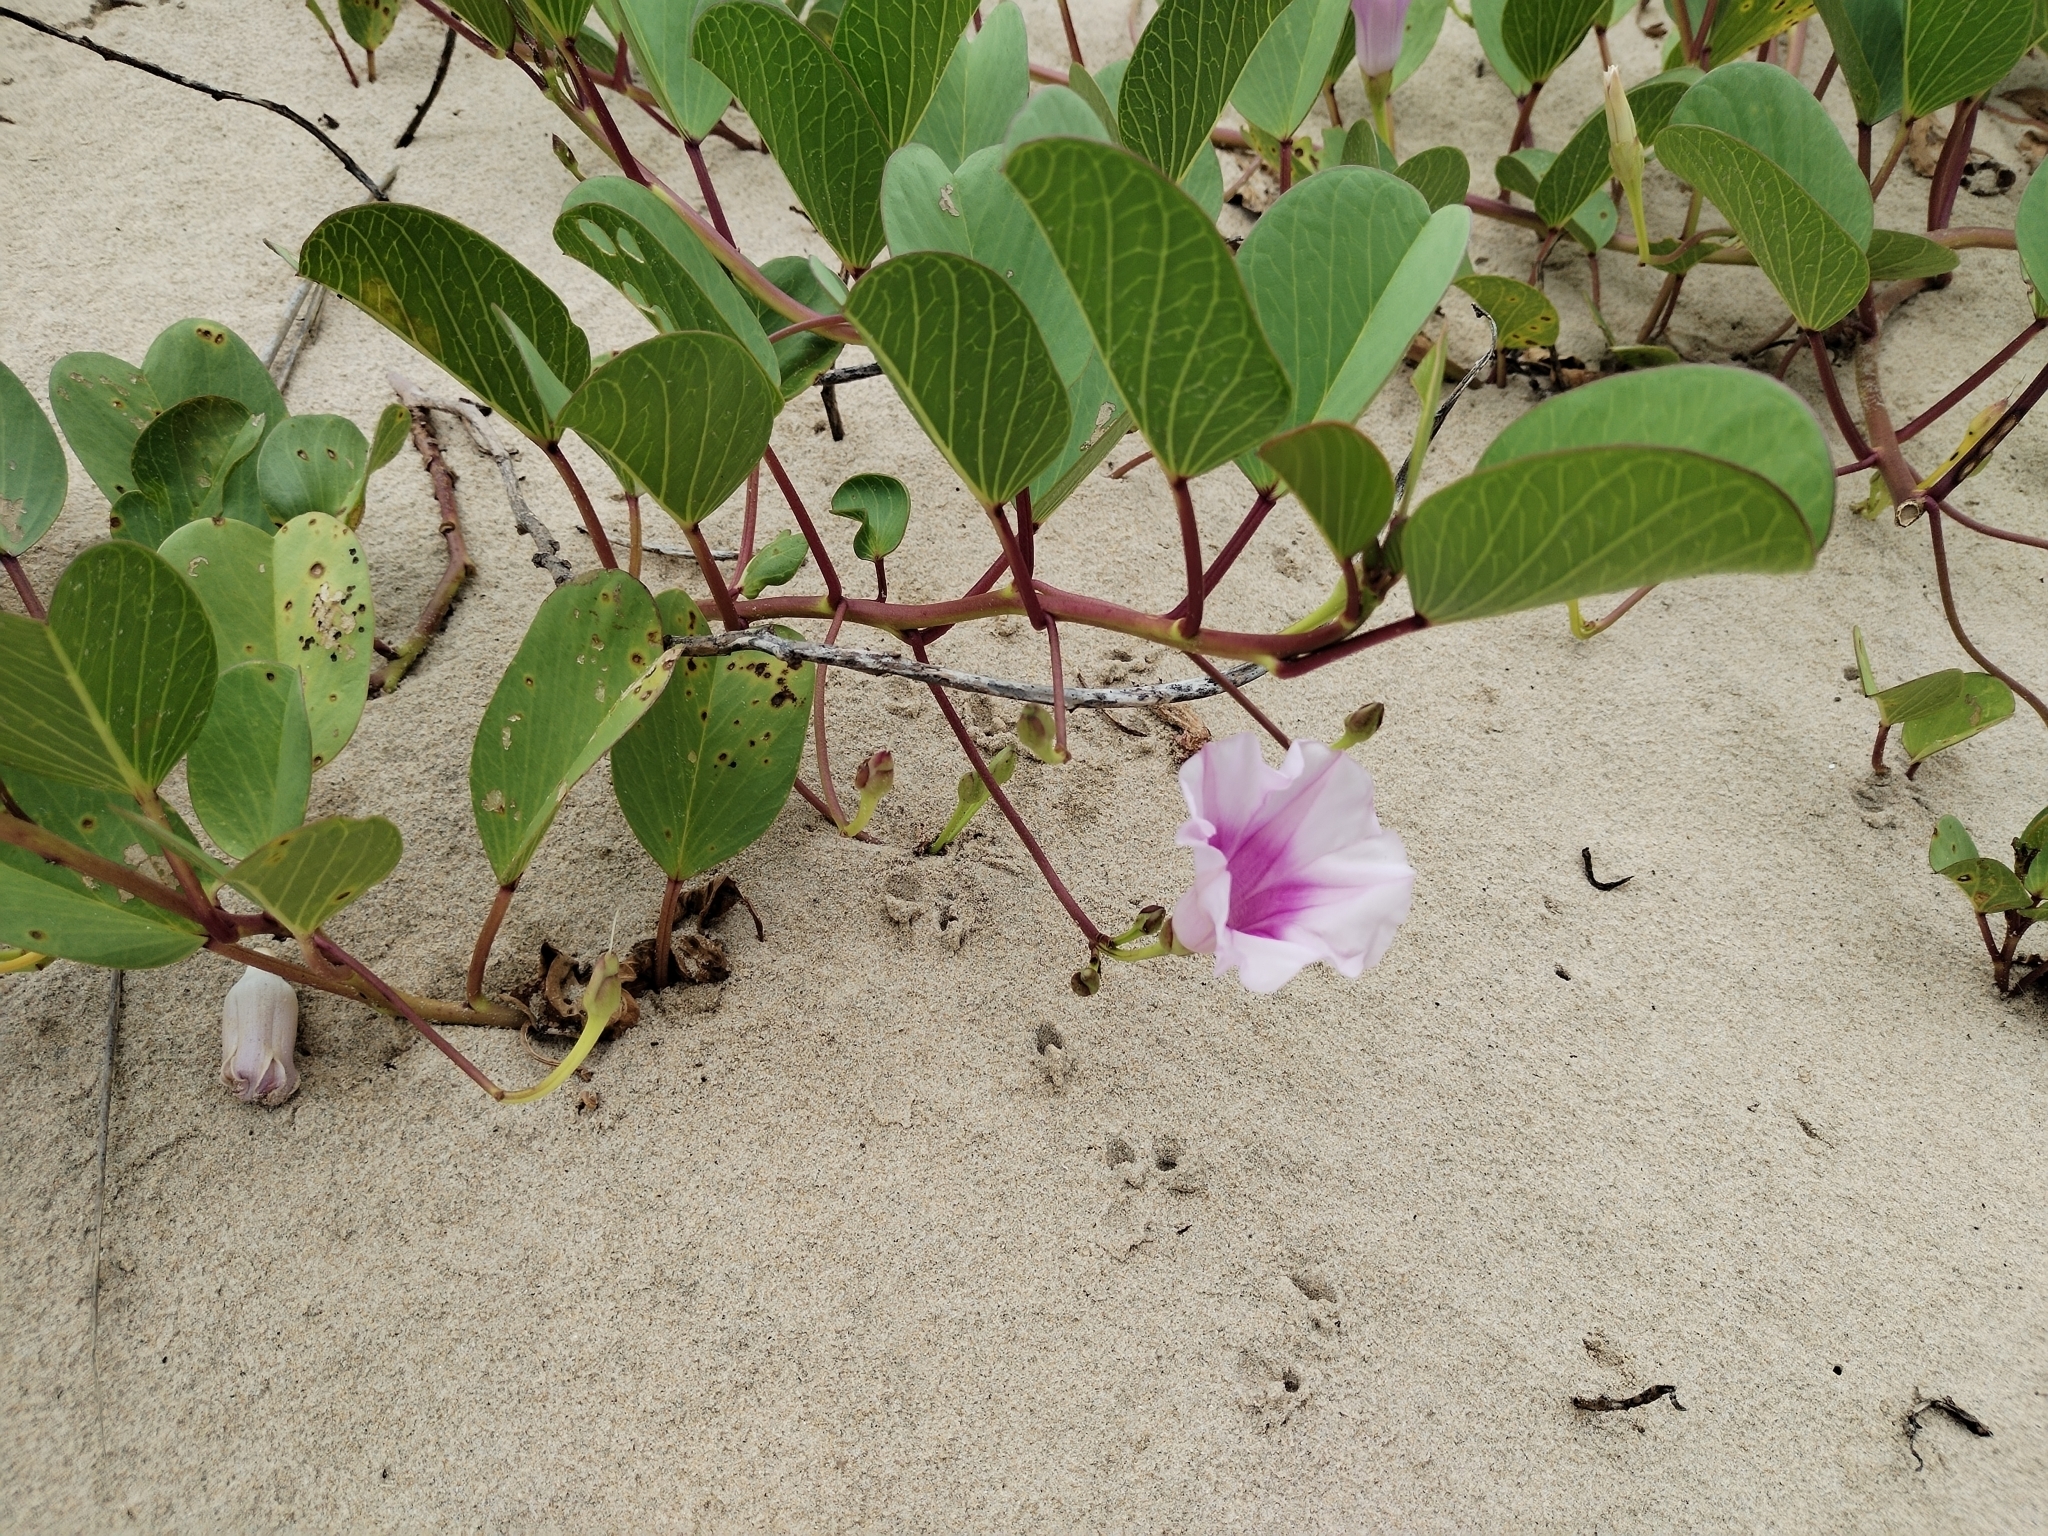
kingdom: Plantae
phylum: Tracheophyta
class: Magnoliopsida
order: Solanales
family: Convolvulaceae
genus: Ipomoea
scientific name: Ipomoea pes-caprae
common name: Beach morning glory
